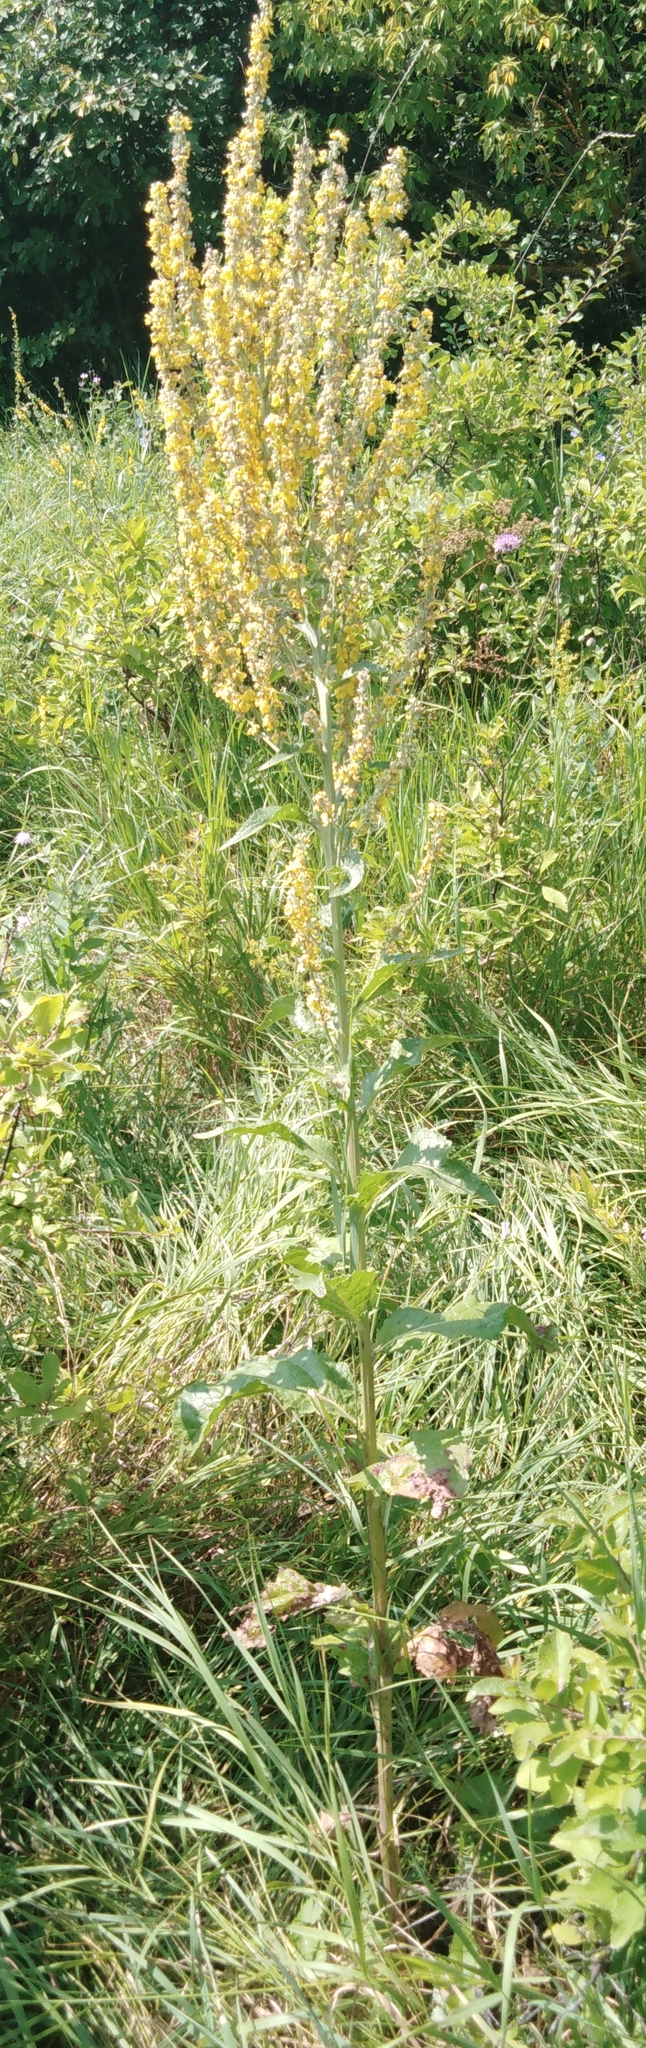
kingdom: Plantae
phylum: Tracheophyta
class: Magnoliopsida
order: Lamiales
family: Scrophulariaceae
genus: Verbascum
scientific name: Verbascum lychnitis
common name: White mullein
